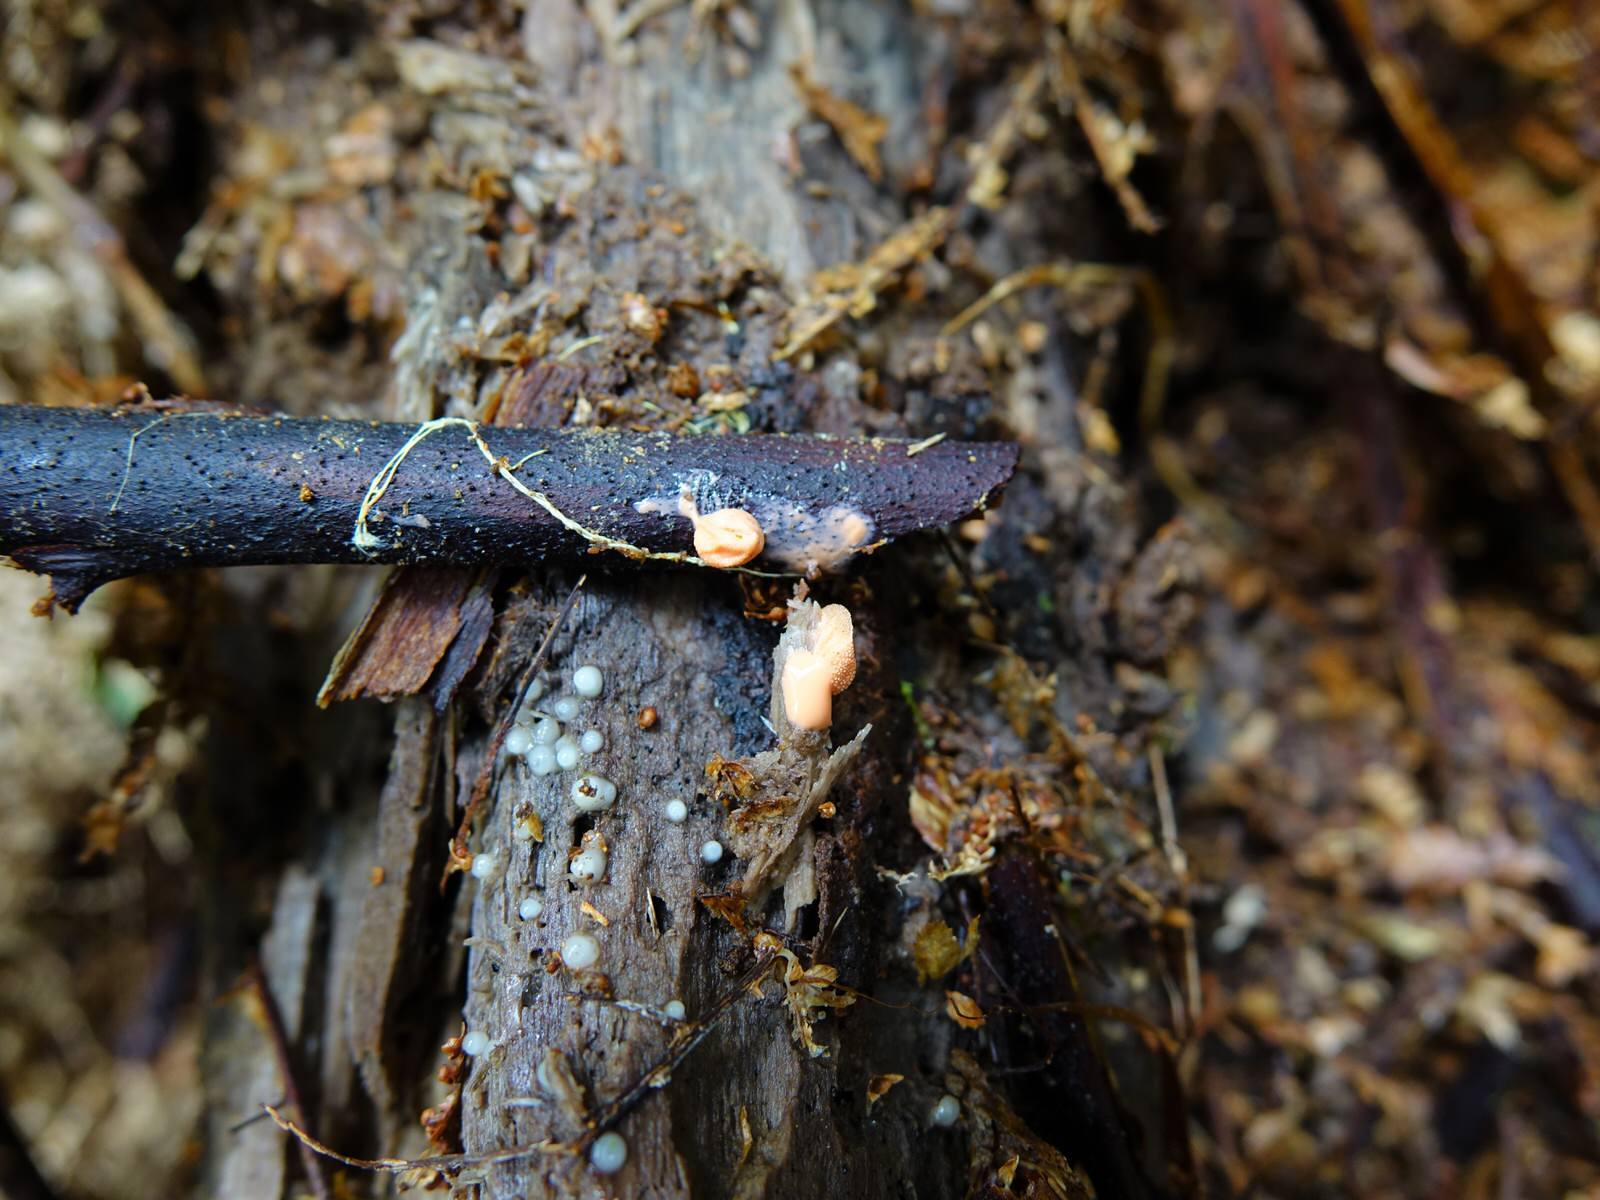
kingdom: Protozoa
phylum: Mycetozoa
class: Myxomycetes
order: Cribrariales
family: Tubiferaceae
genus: Lycogala
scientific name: Lycogala epidendrum
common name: Wolf's milk
